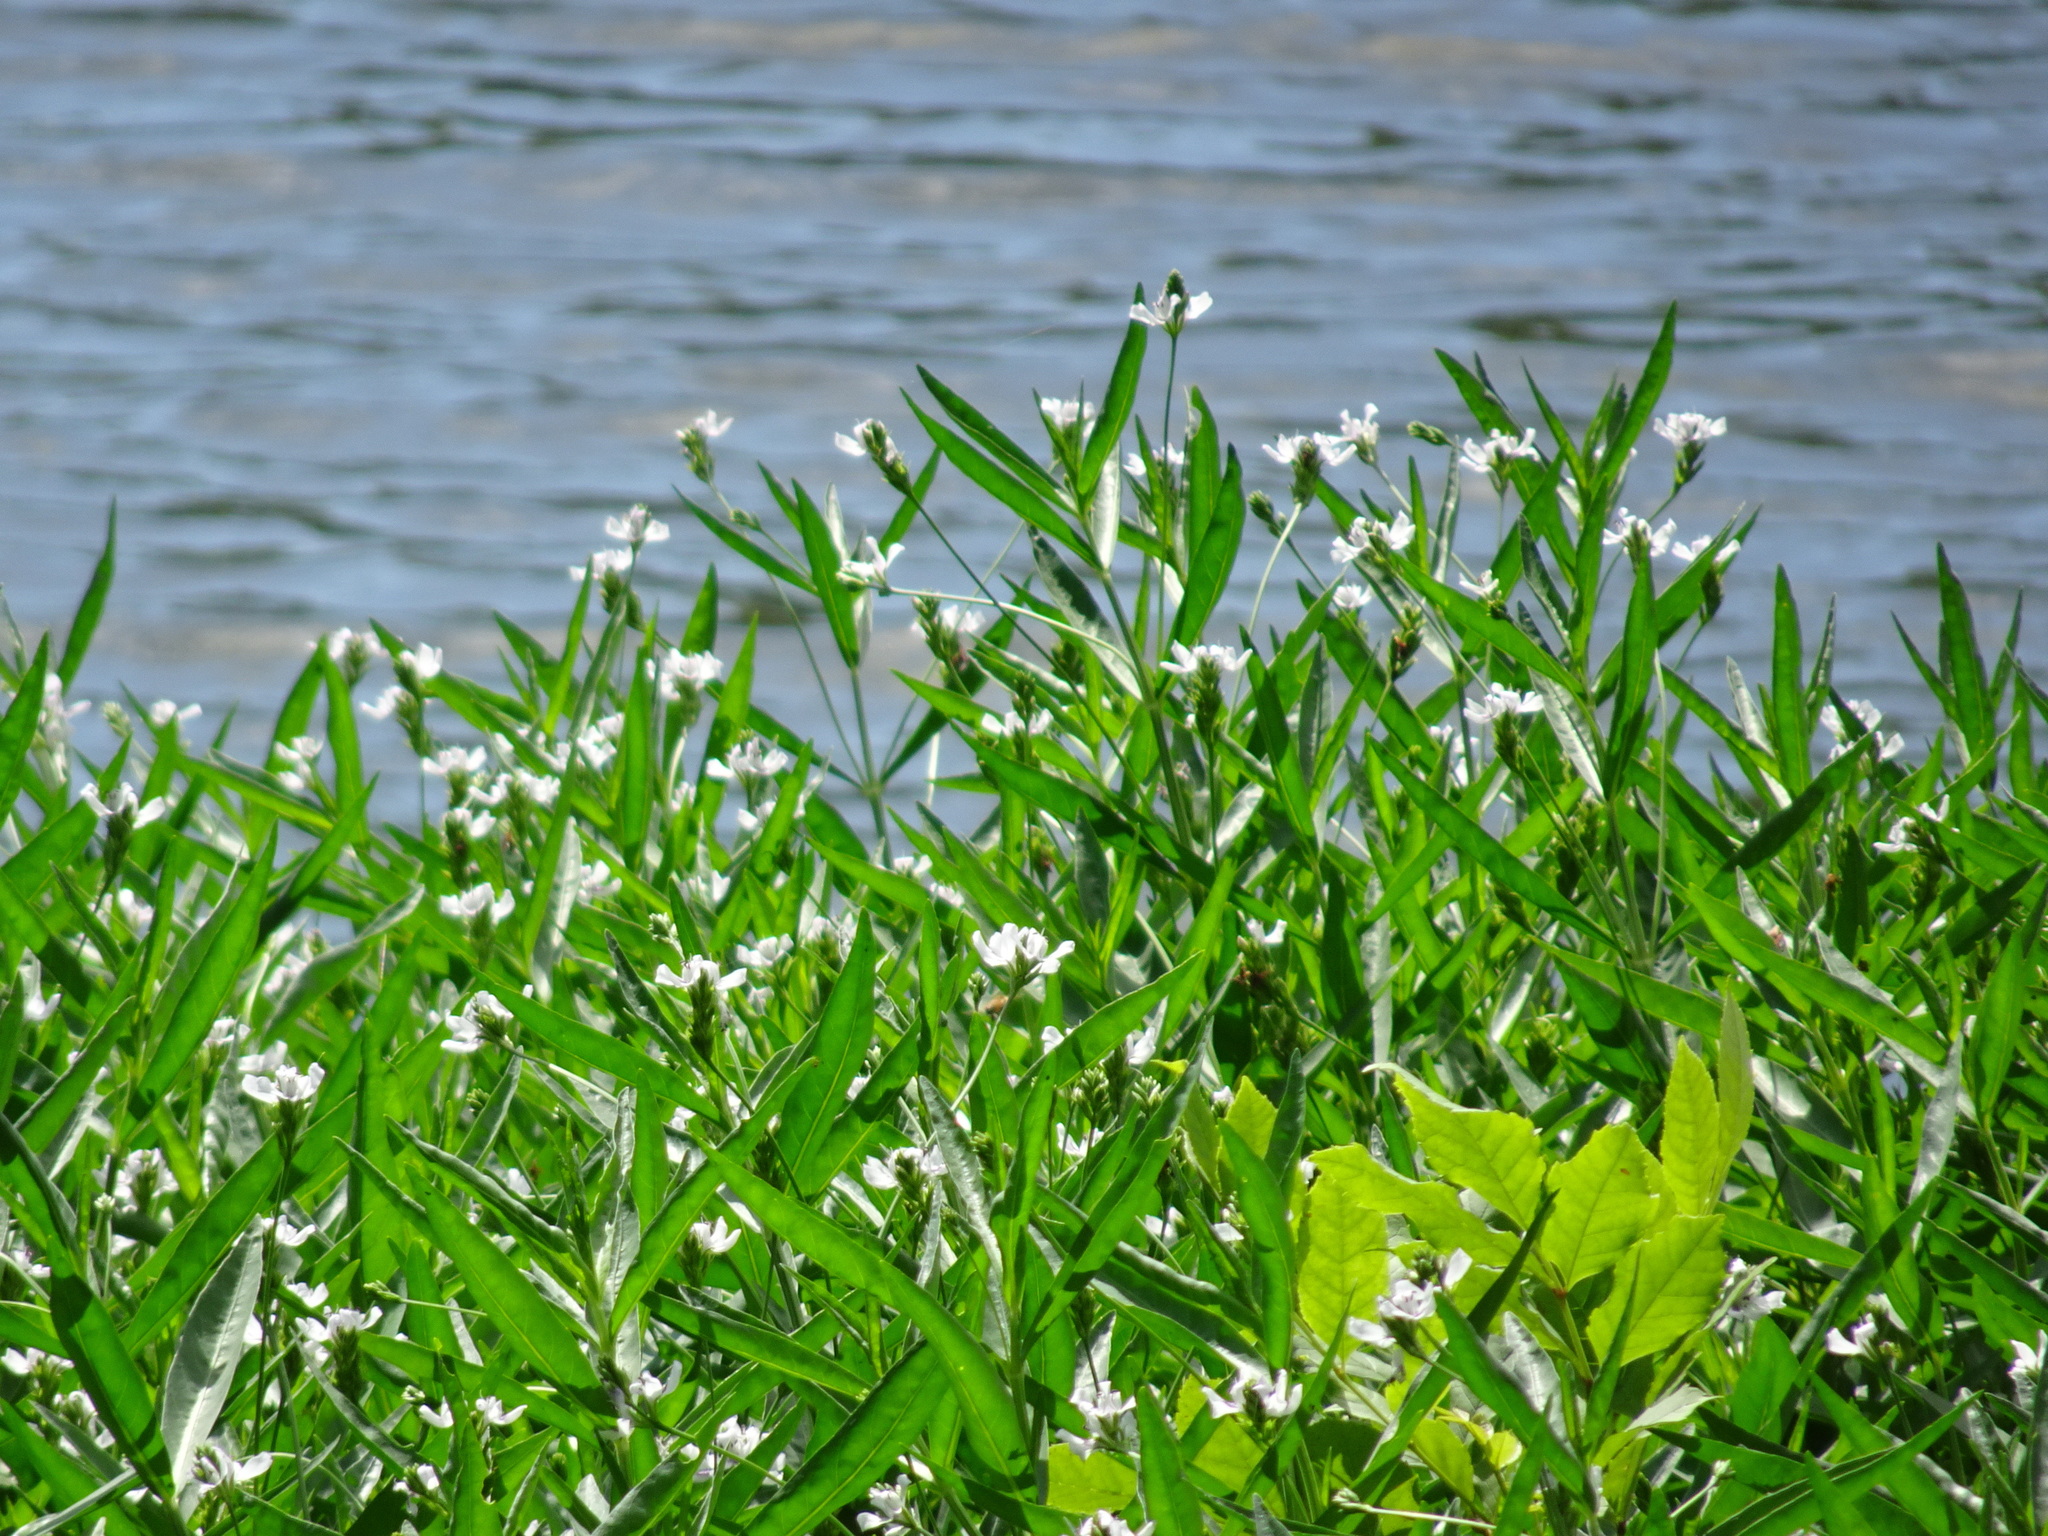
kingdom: Plantae
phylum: Tracheophyta
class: Magnoliopsida
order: Lamiales
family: Acanthaceae
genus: Dianthera
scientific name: Dianthera americana
